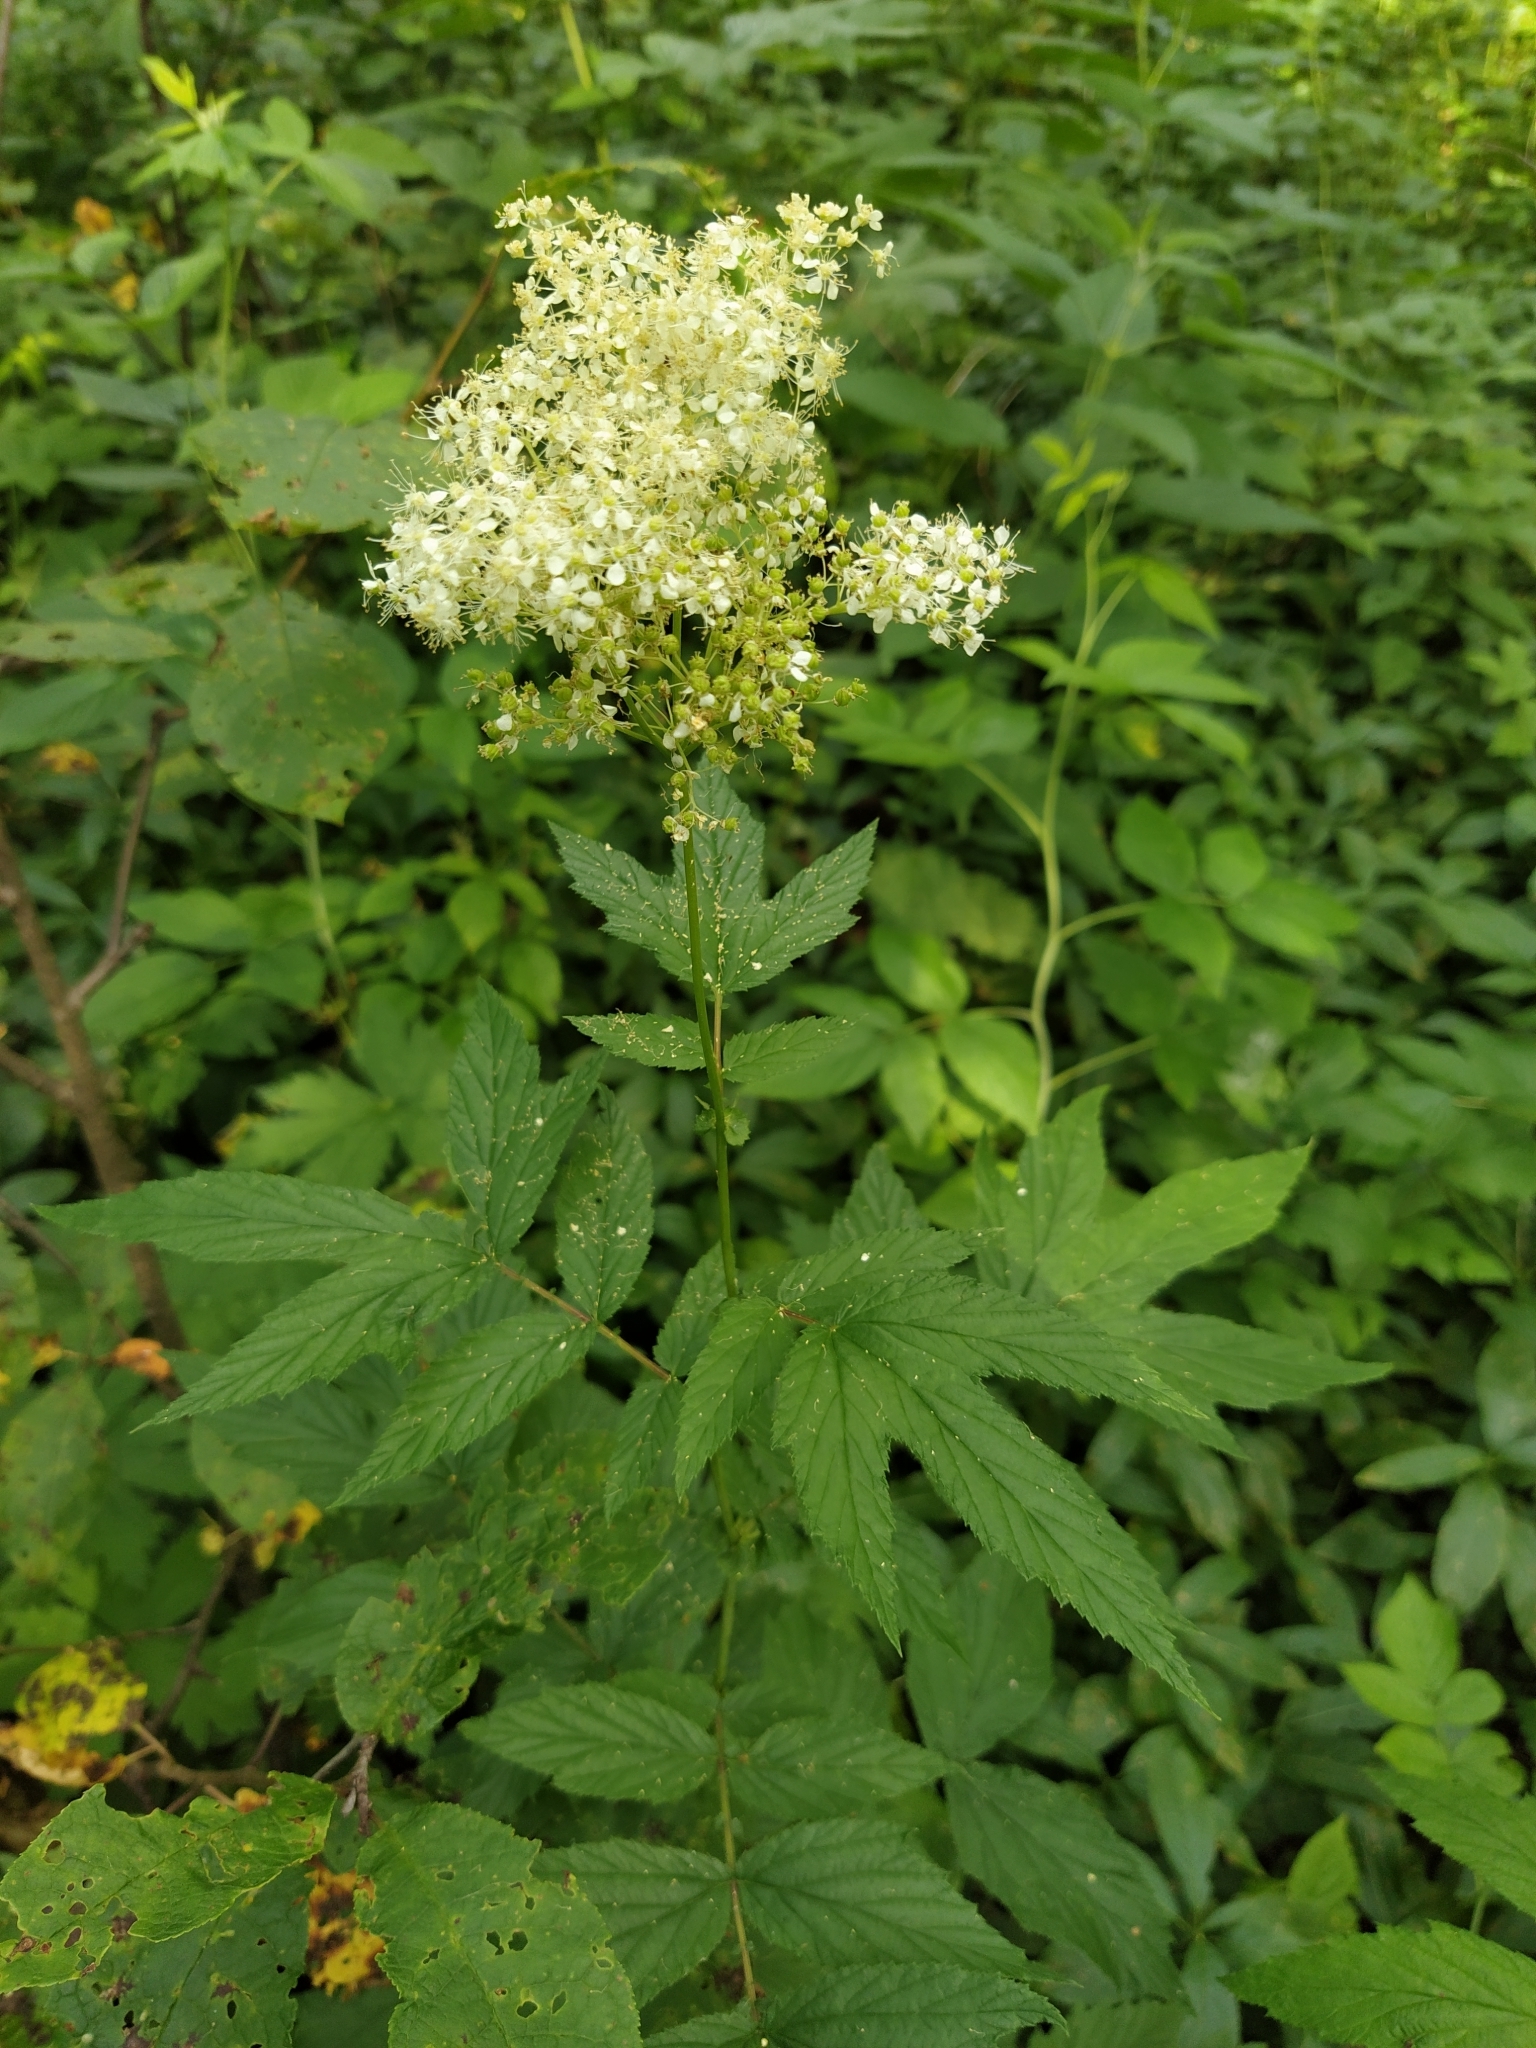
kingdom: Plantae
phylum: Tracheophyta
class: Magnoliopsida
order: Rosales
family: Rosaceae
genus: Filipendula
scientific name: Filipendula ulmaria
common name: Meadowsweet
